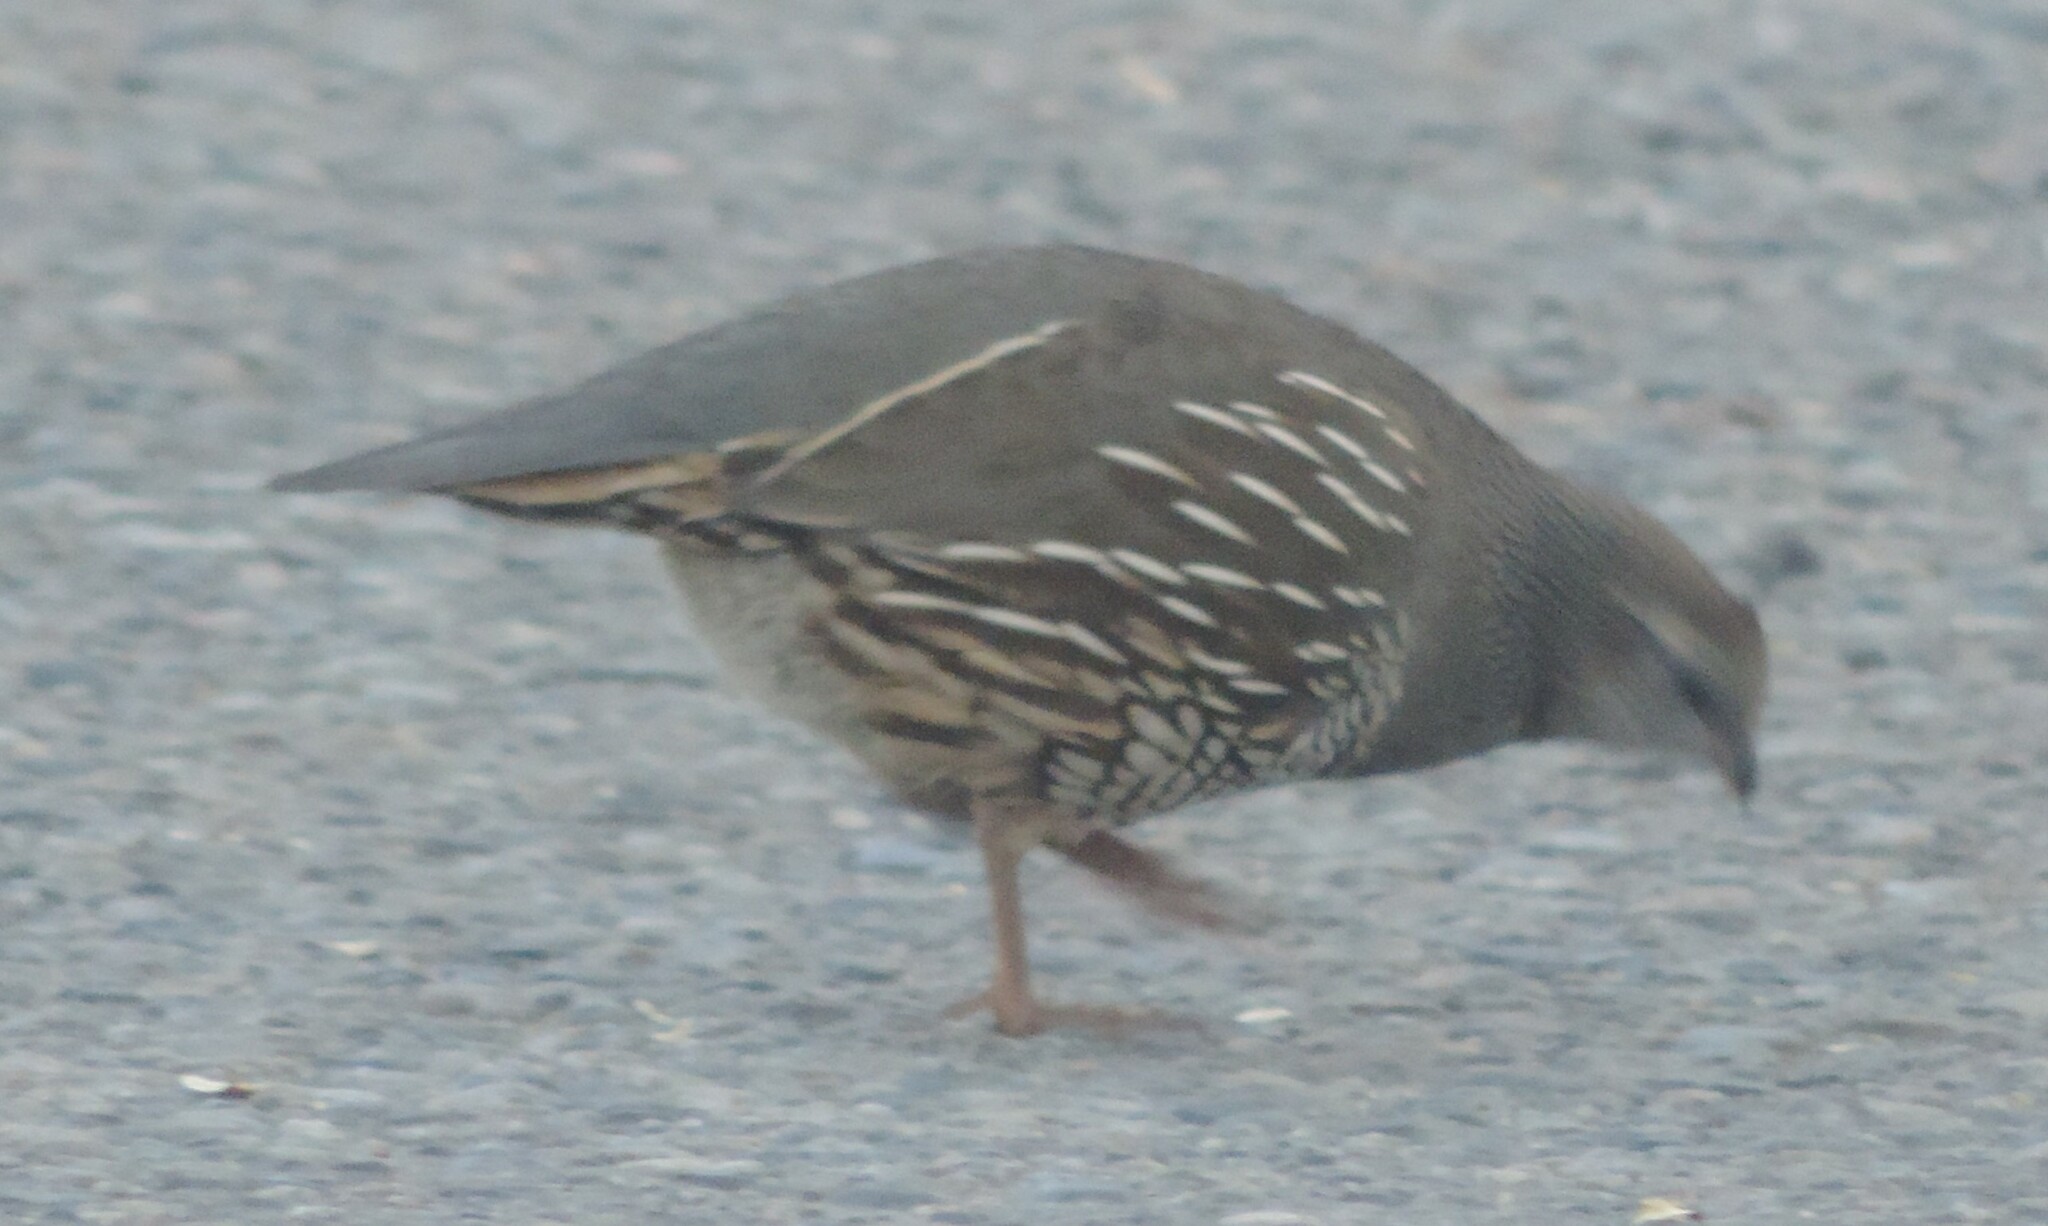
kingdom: Animalia
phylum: Chordata
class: Aves
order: Galliformes
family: Odontophoridae
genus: Callipepla
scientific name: Callipepla californica
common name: California quail
